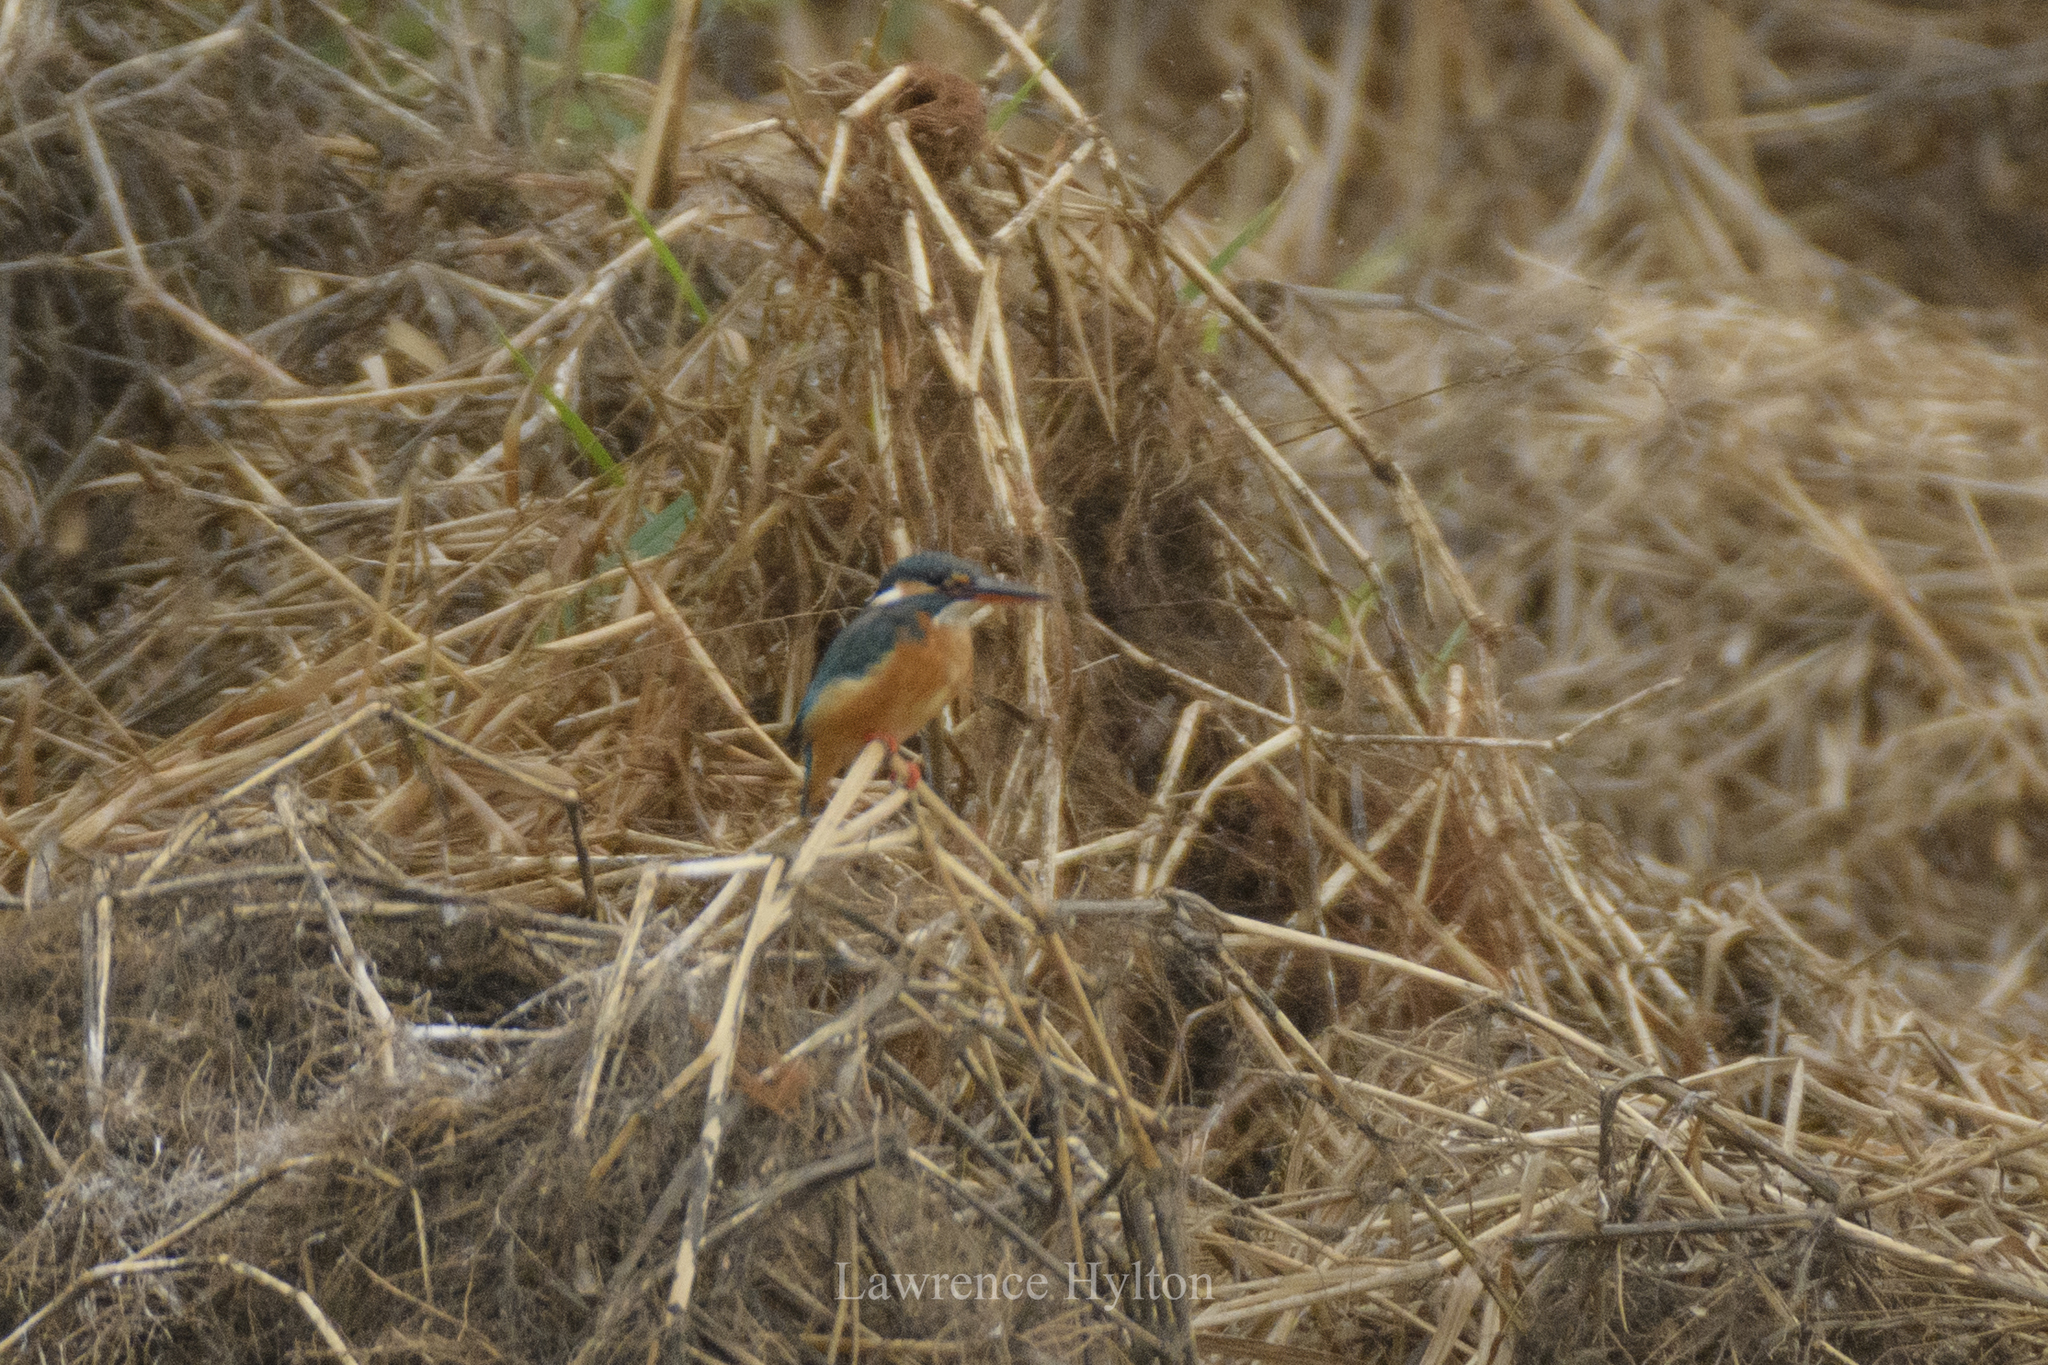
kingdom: Animalia
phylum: Chordata
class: Aves
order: Coraciiformes
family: Alcedinidae
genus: Alcedo
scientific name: Alcedo atthis
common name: Common kingfisher
